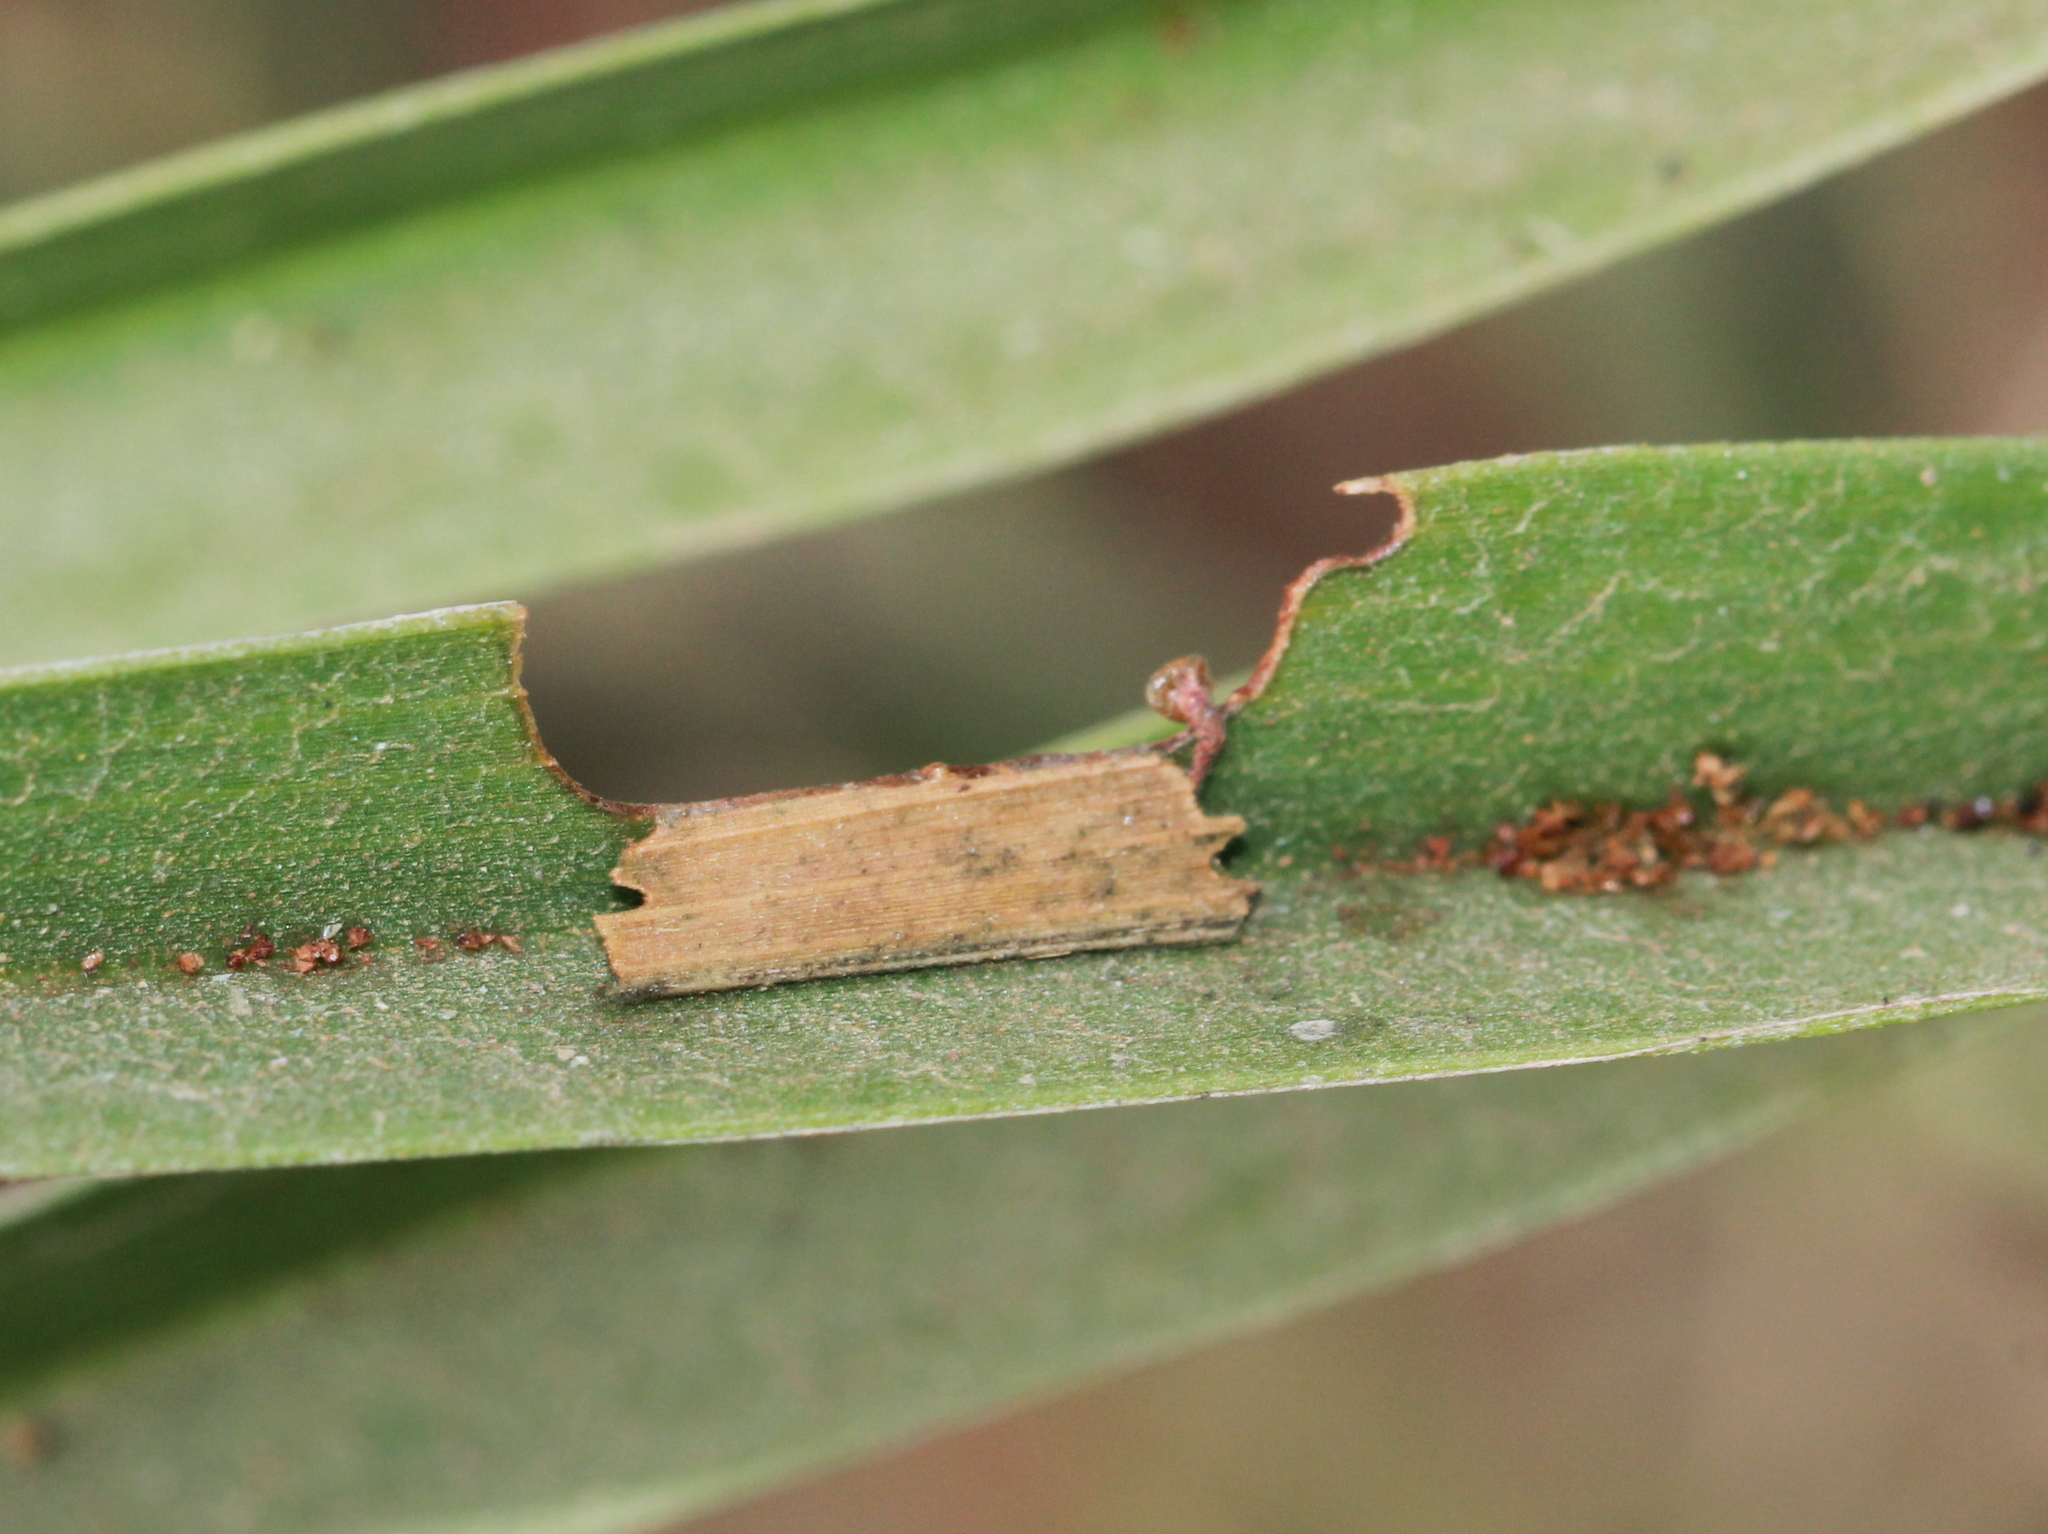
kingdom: Animalia
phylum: Arthropoda
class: Insecta
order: Lepidoptera
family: Hesperiidae
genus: Suastus
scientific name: Suastus gremius
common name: Indian palm bob
